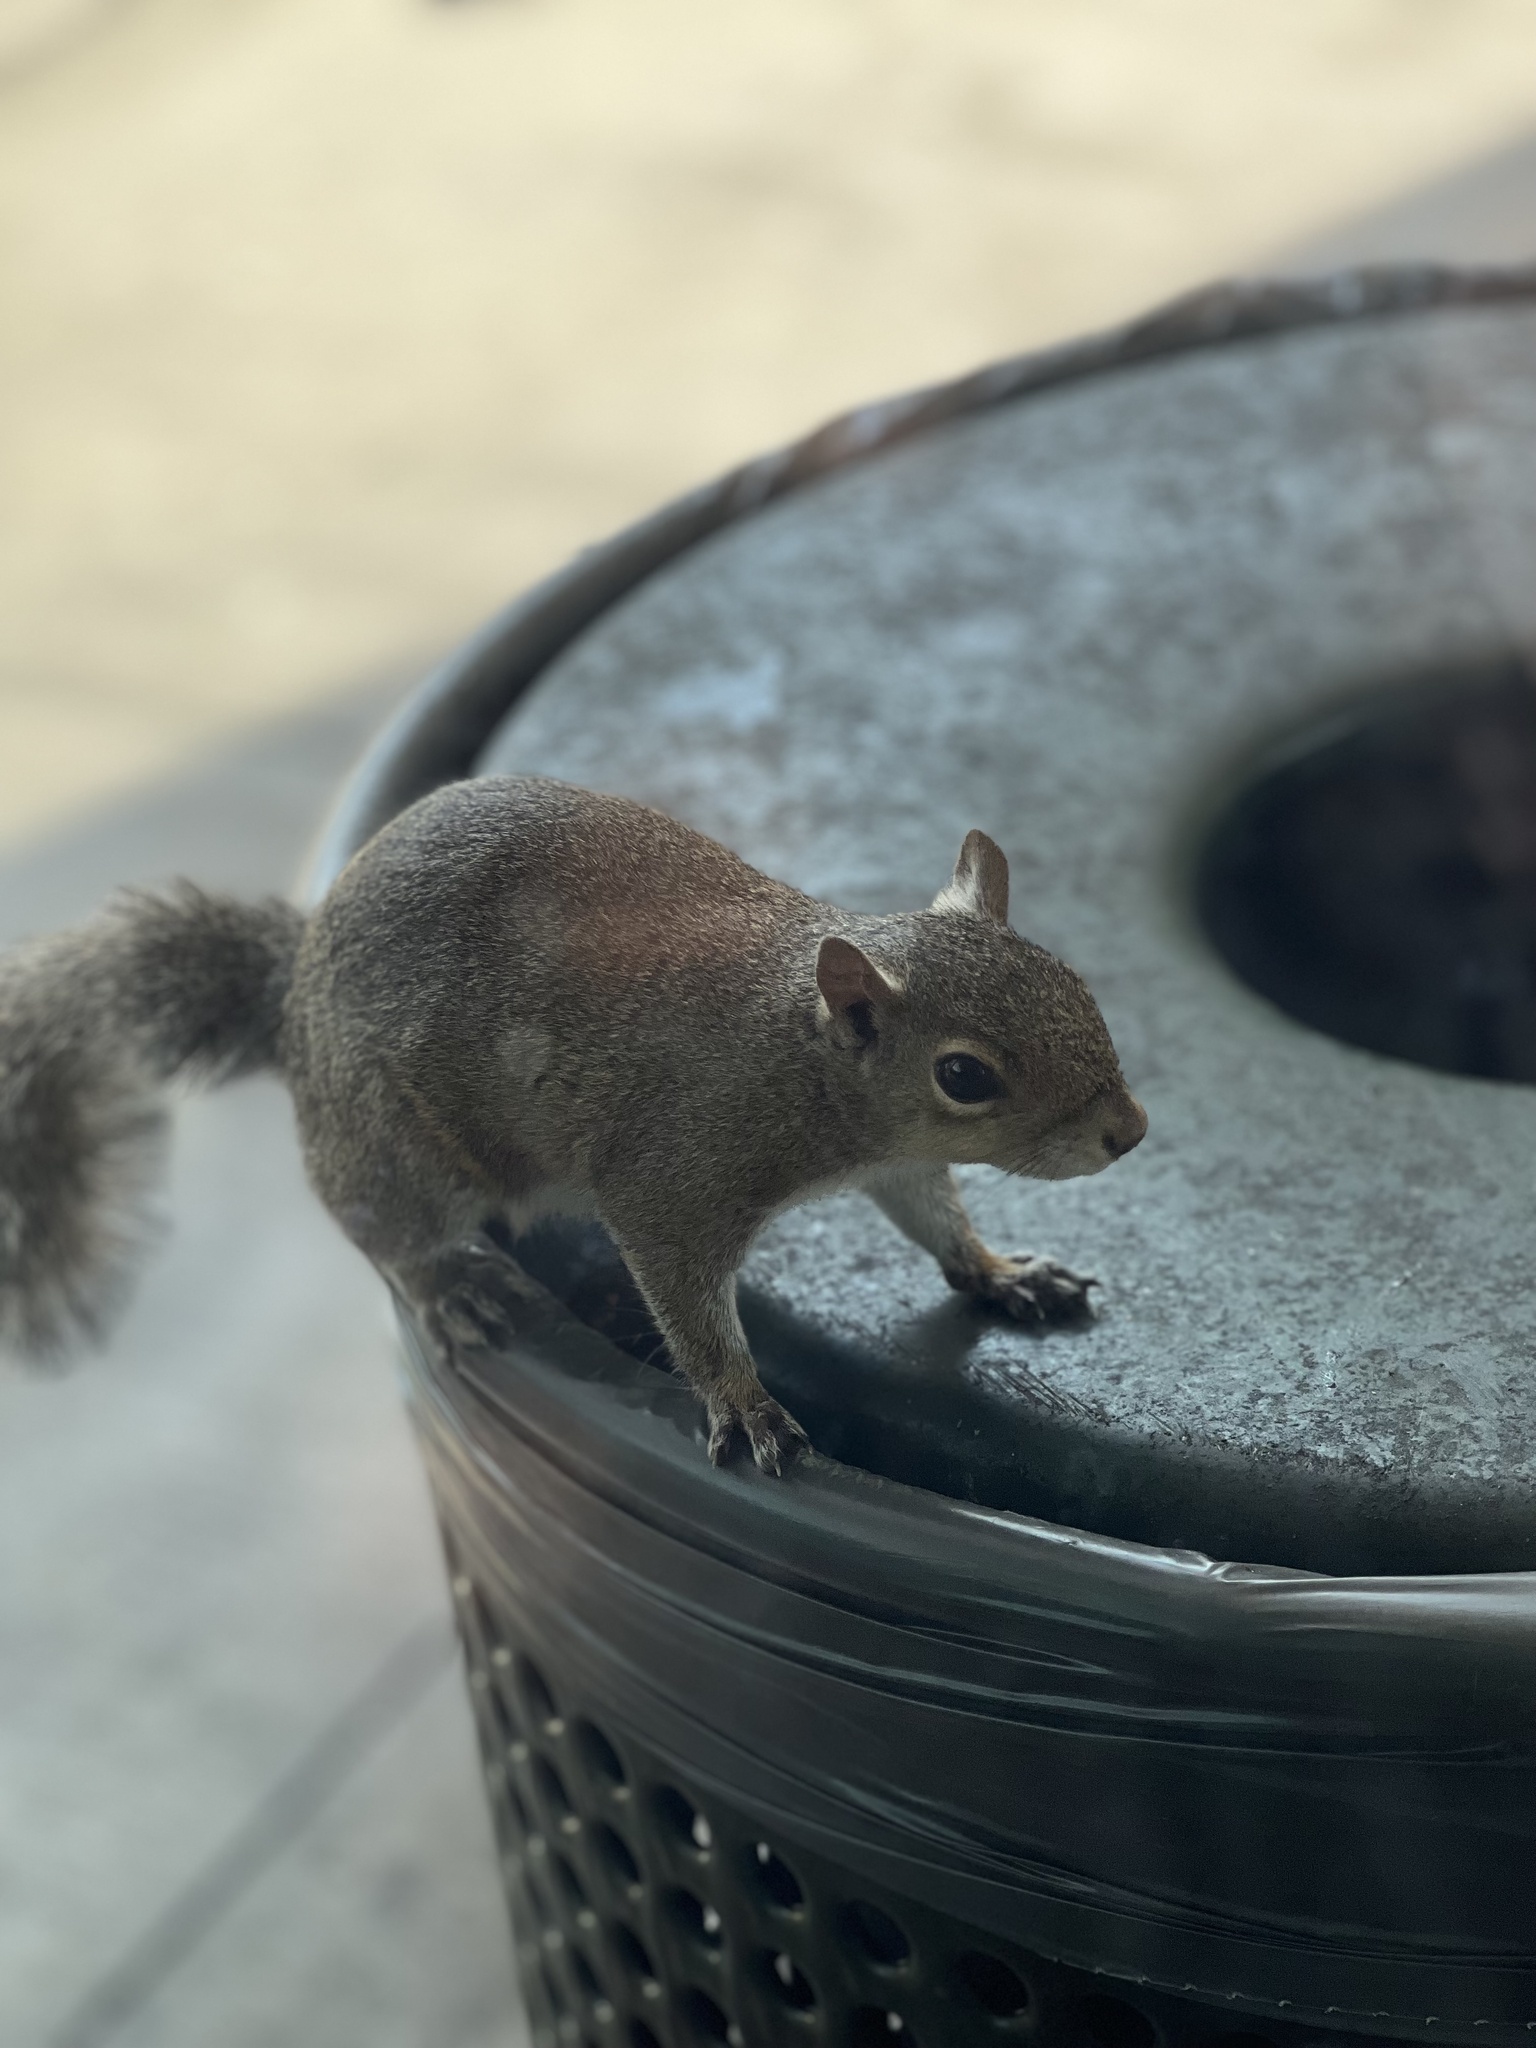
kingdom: Animalia
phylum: Chordata
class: Mammalia
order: Rodentia
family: Sciuridae
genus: Sciurus
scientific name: Sciurus carolinensis
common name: Eastern gray squirrel
